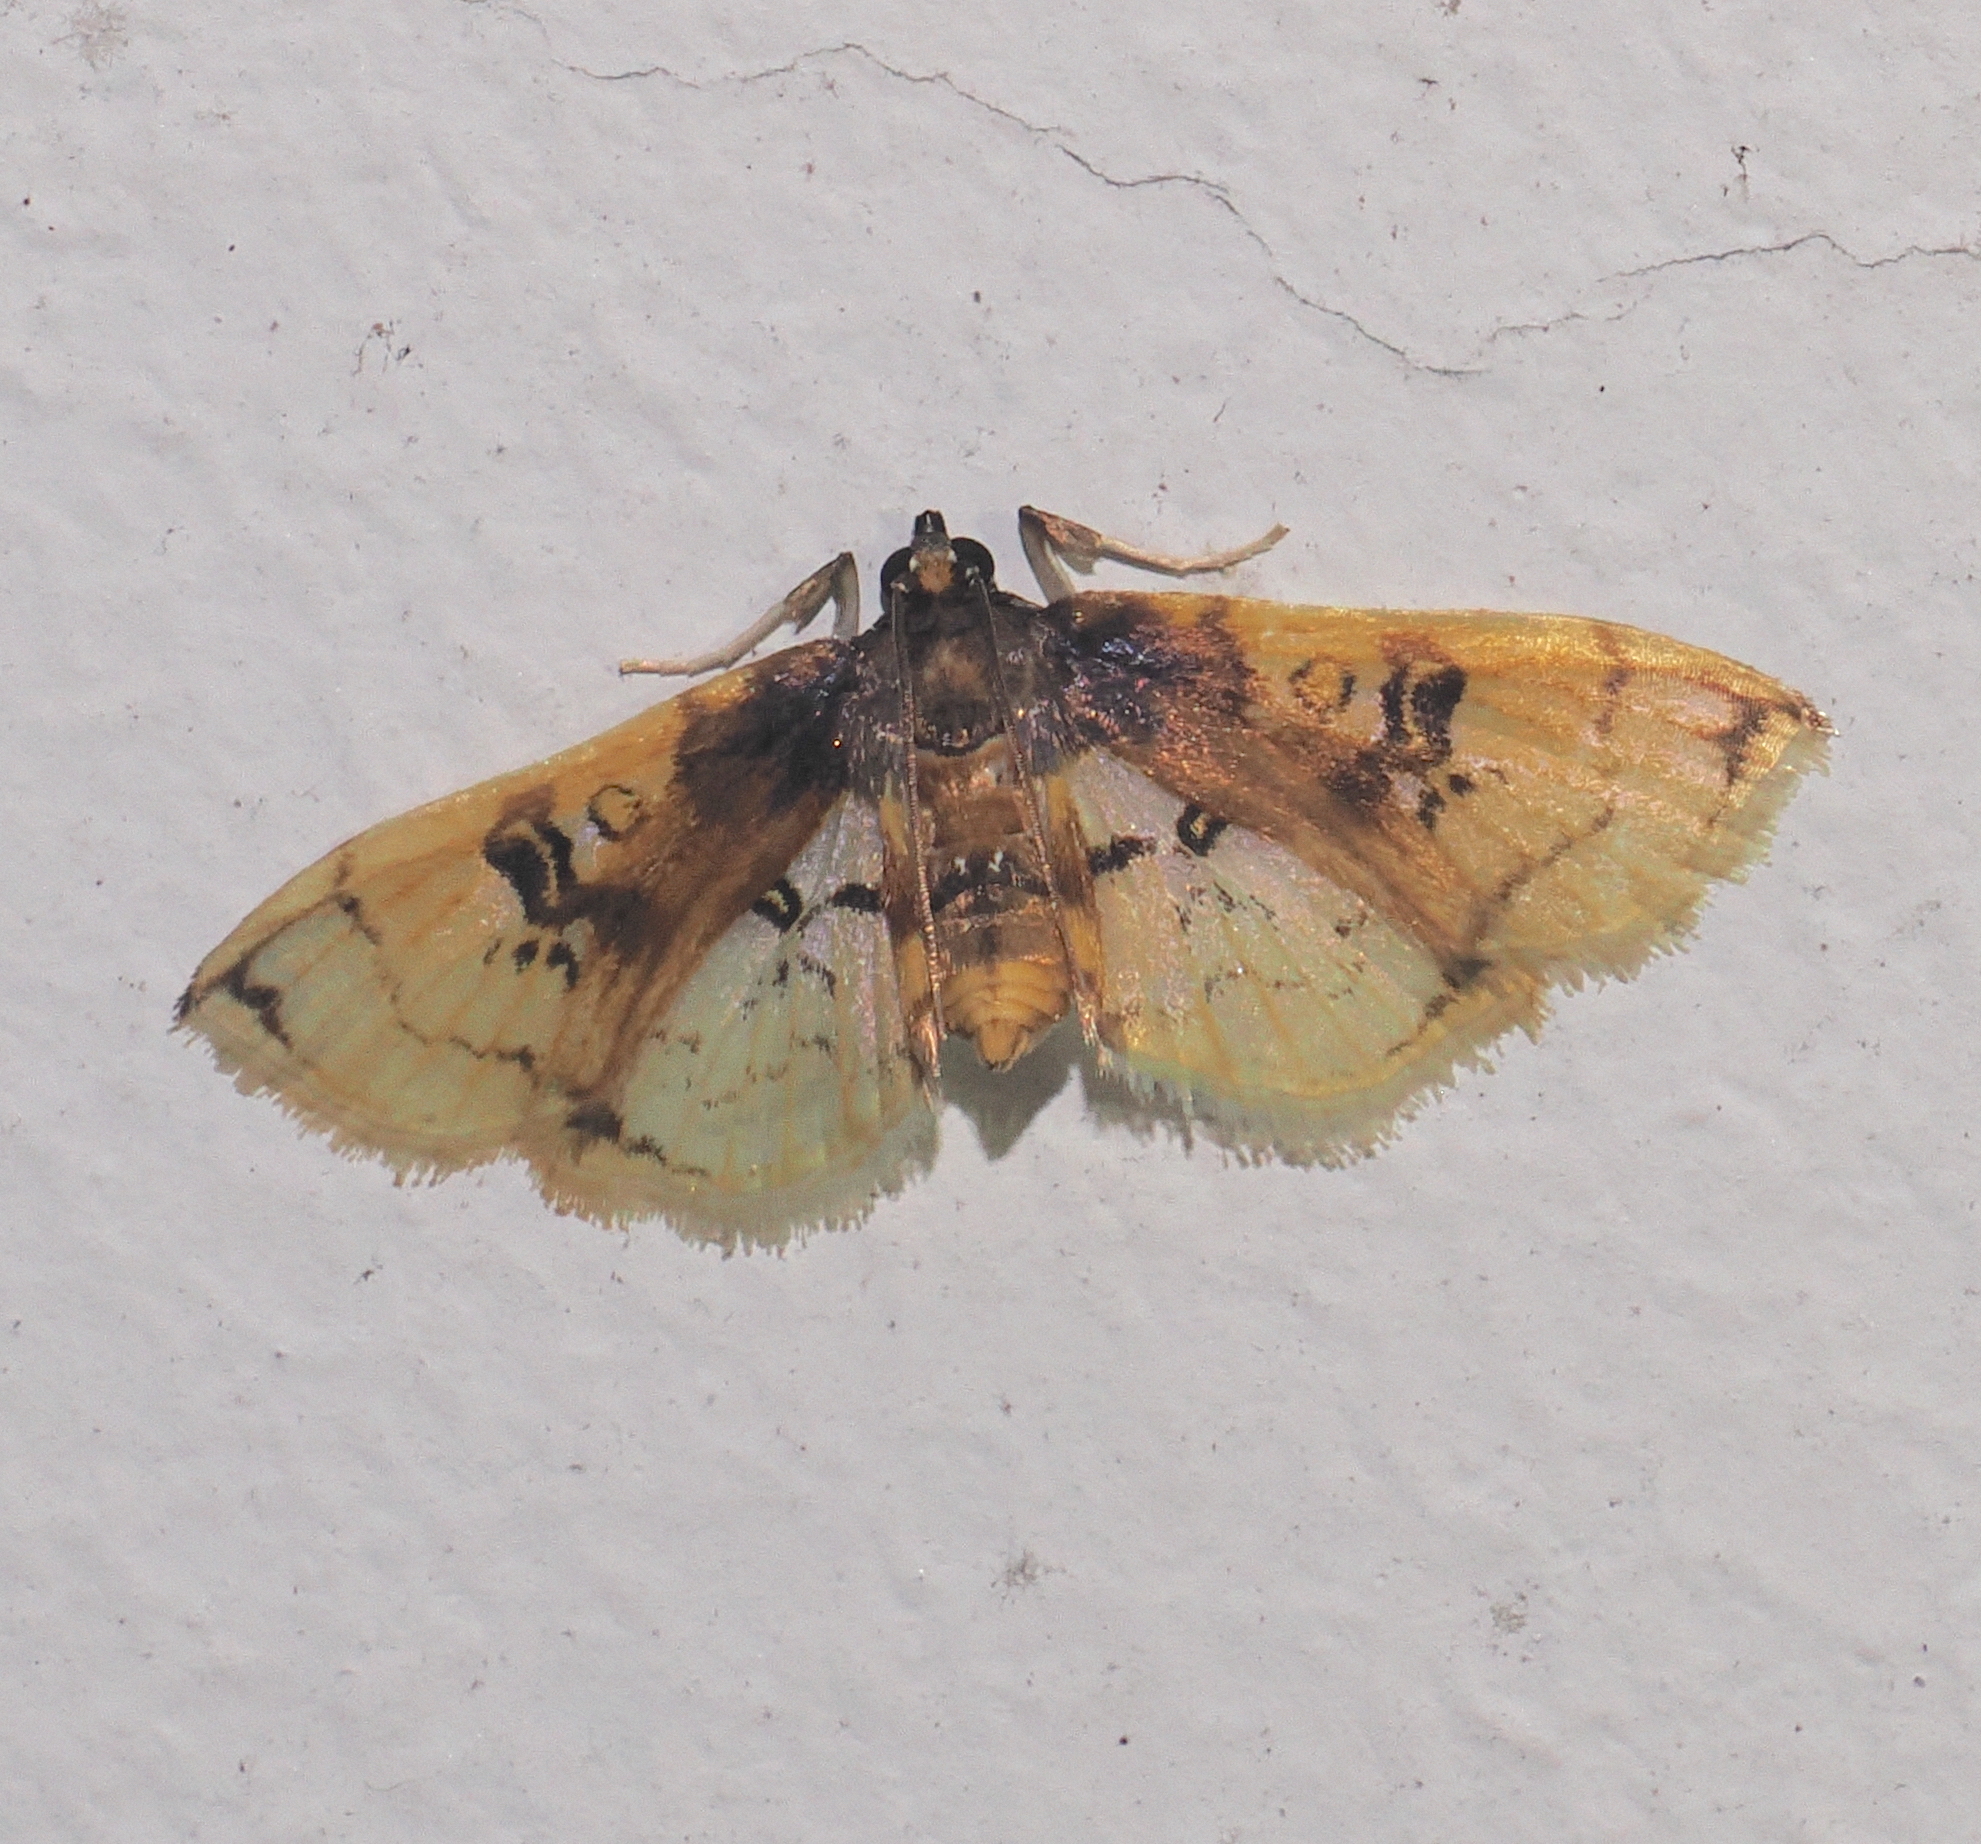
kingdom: Animalia
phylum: Arthropoda
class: Insecta
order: Lepidoptera
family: Crambidae
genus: Compacta
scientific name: Compacta hirtalis
